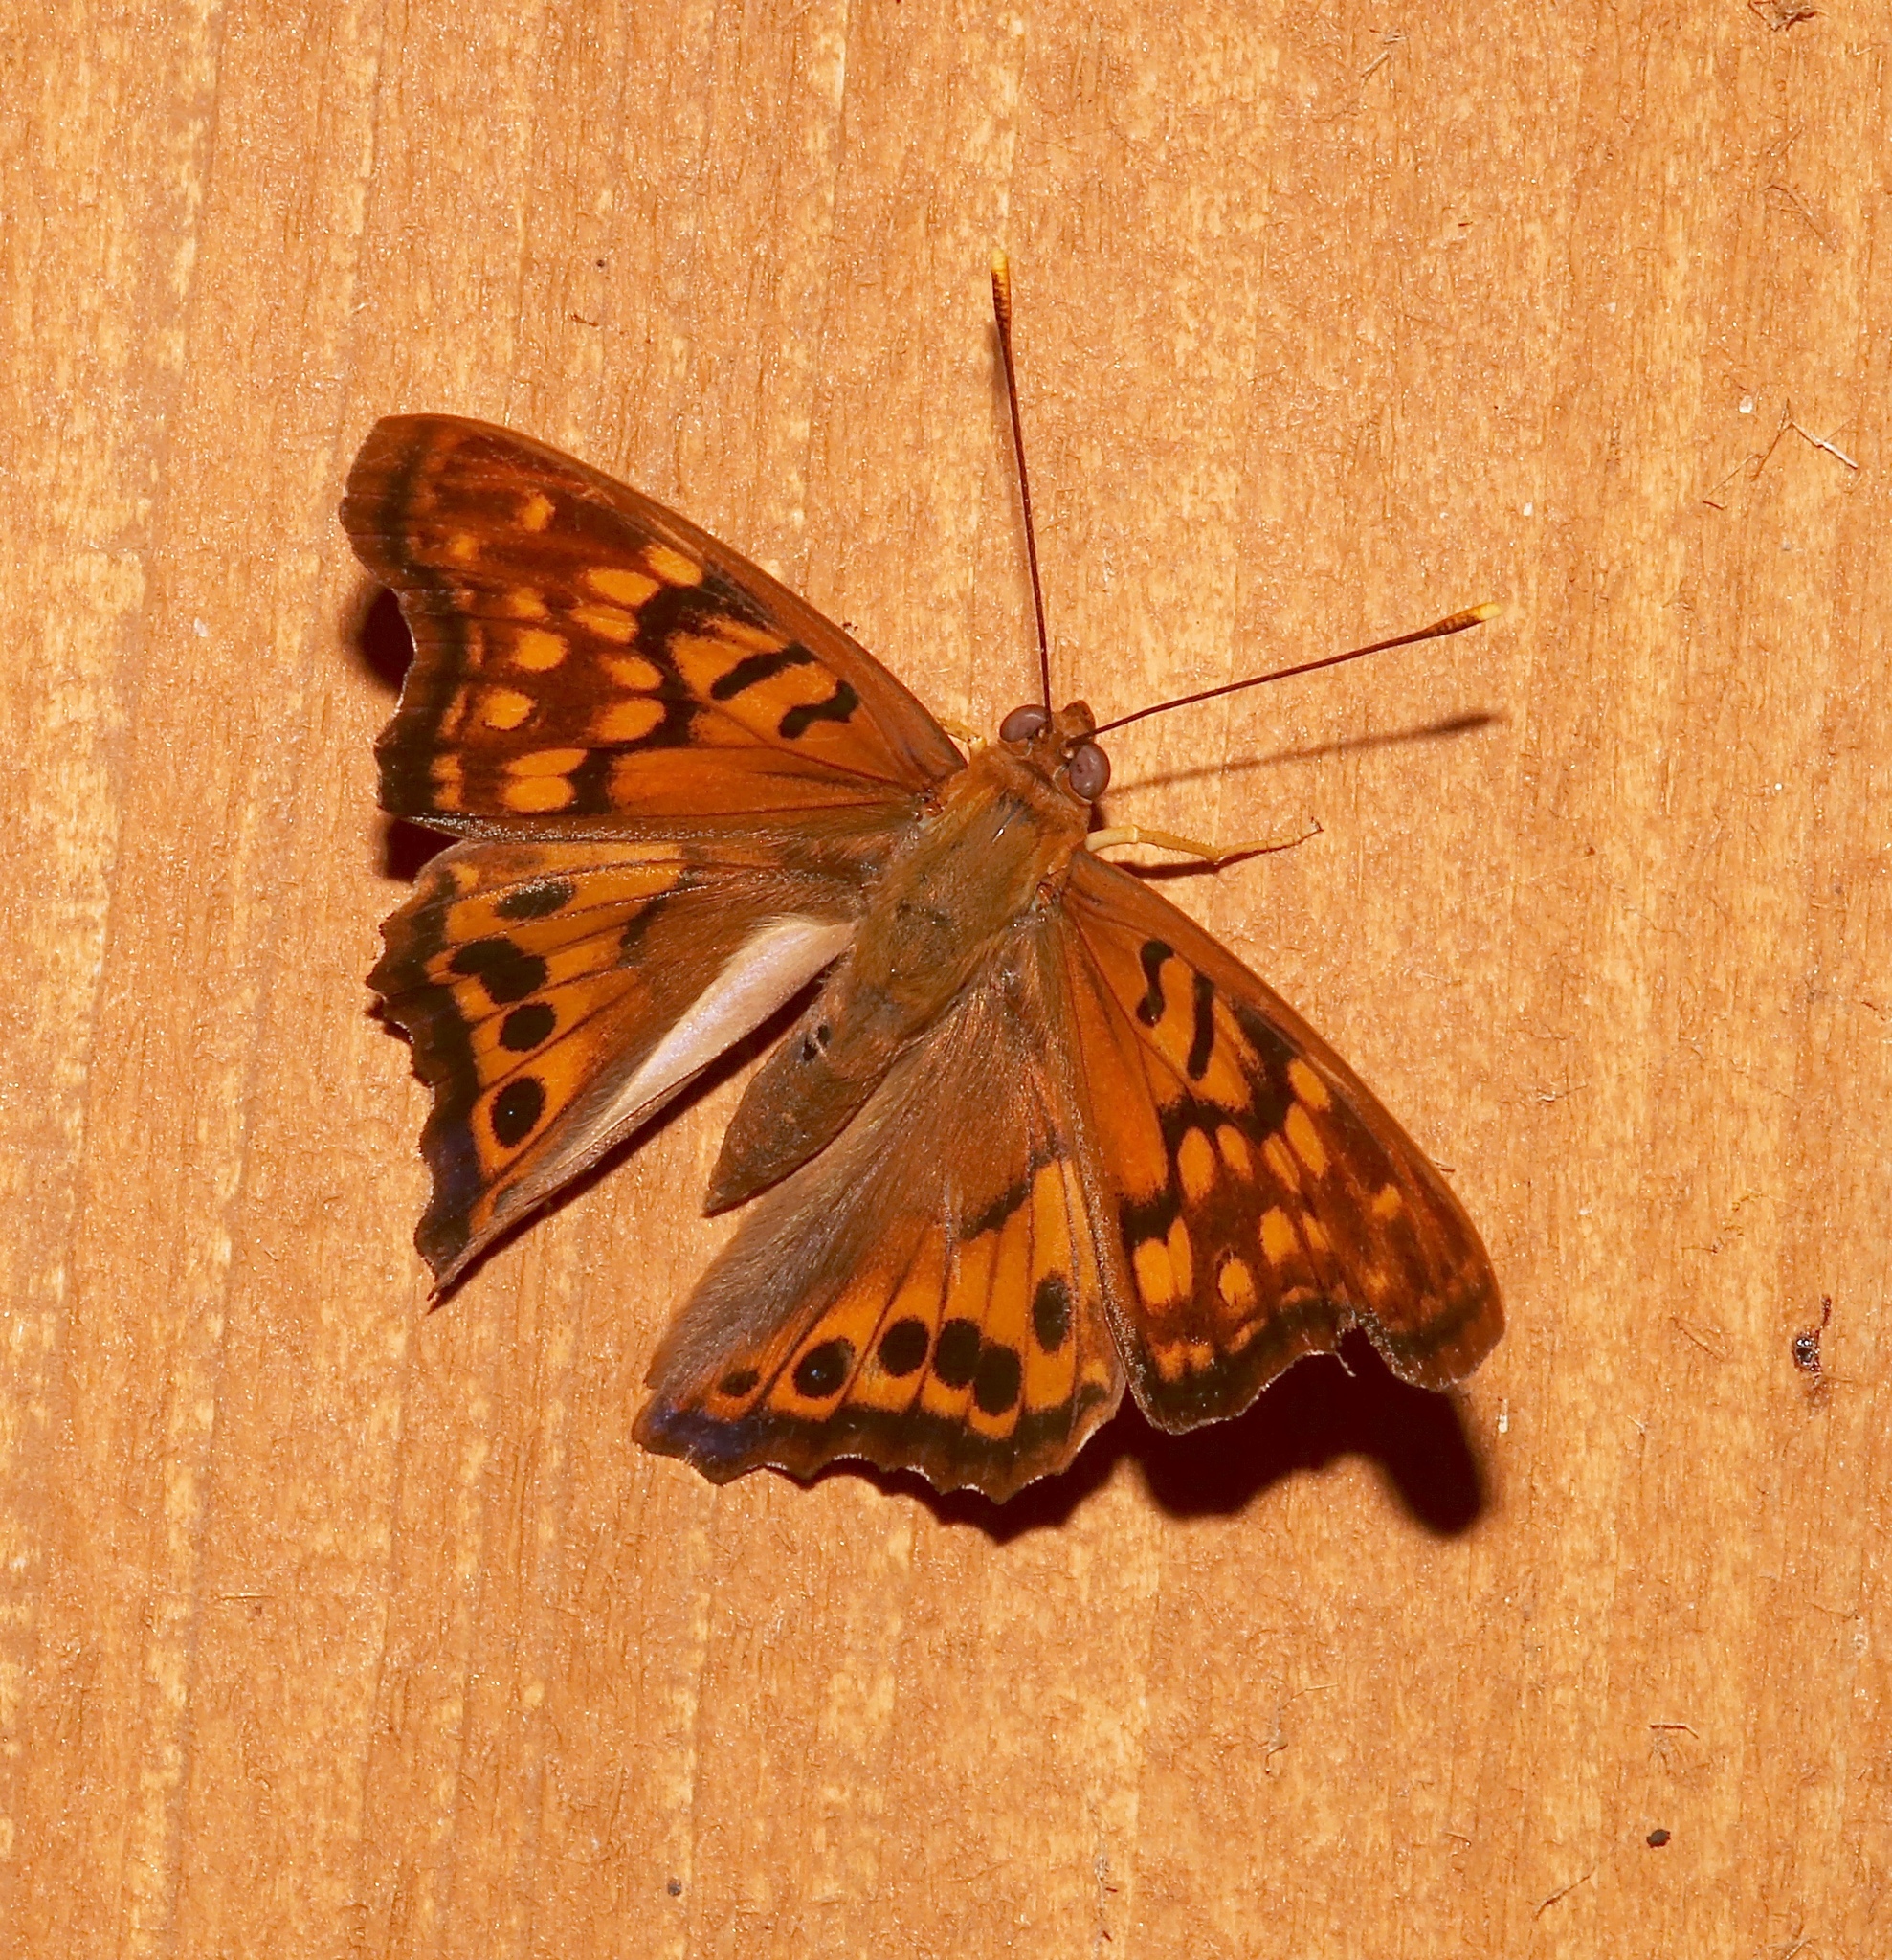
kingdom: Animalia
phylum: Arthropoda
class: Insecta
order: Lepidoptera
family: Nymphalidae
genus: Asterocampa
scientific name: Asterocampa clyton
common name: Tawny emperor
